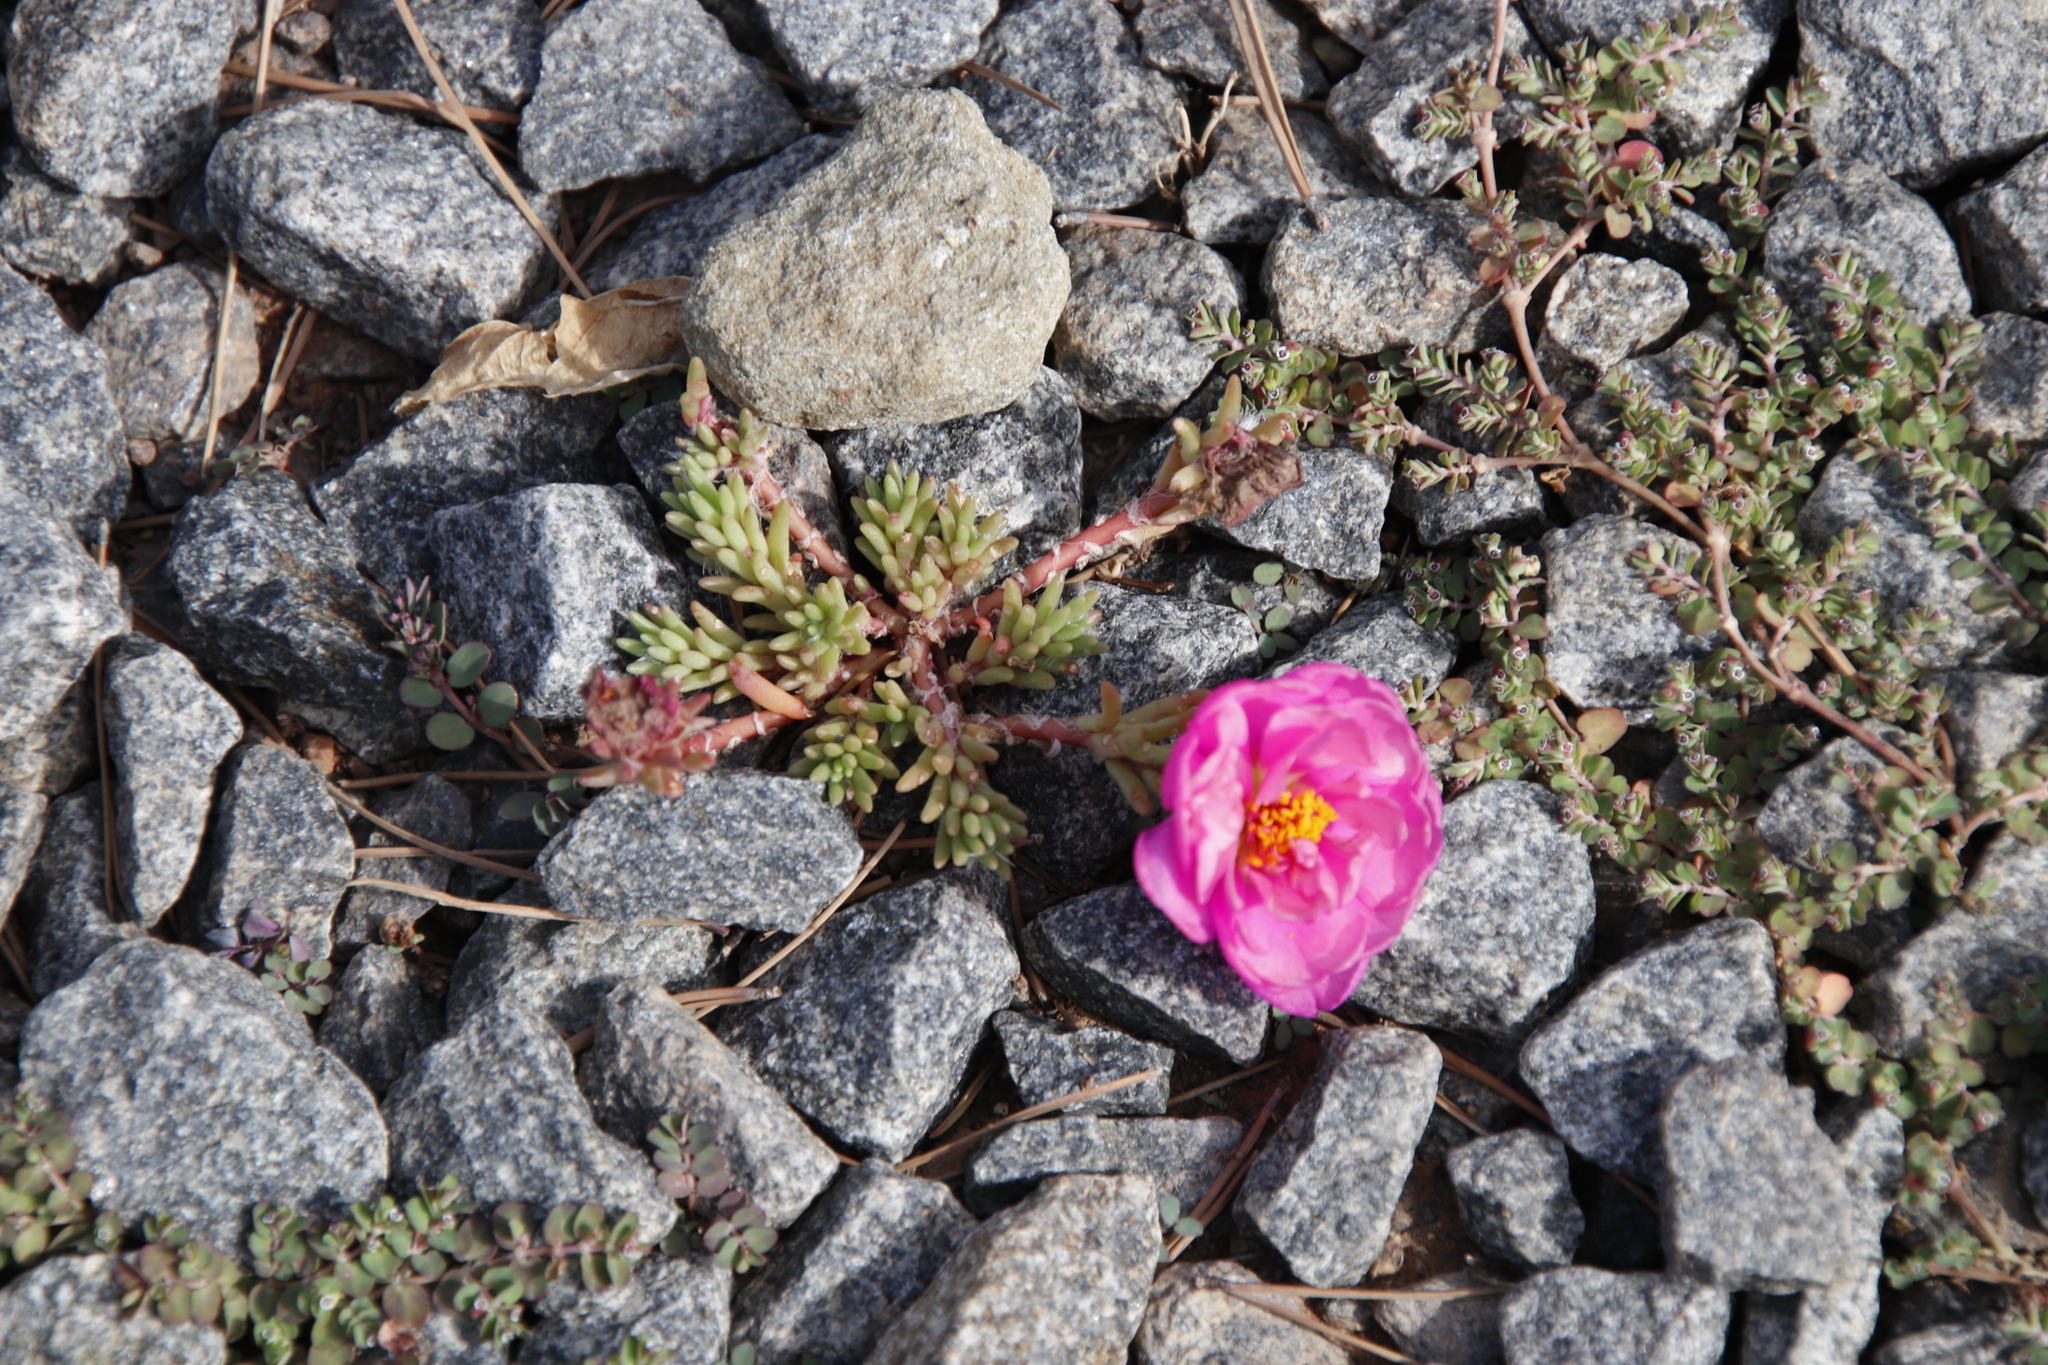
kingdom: Plantae
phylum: Tracheophyta
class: Magnoliopsida
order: Caryophyllales
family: Portulacaceae
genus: Portulaca
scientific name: Portulaca grandiflora
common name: Moss-rose
